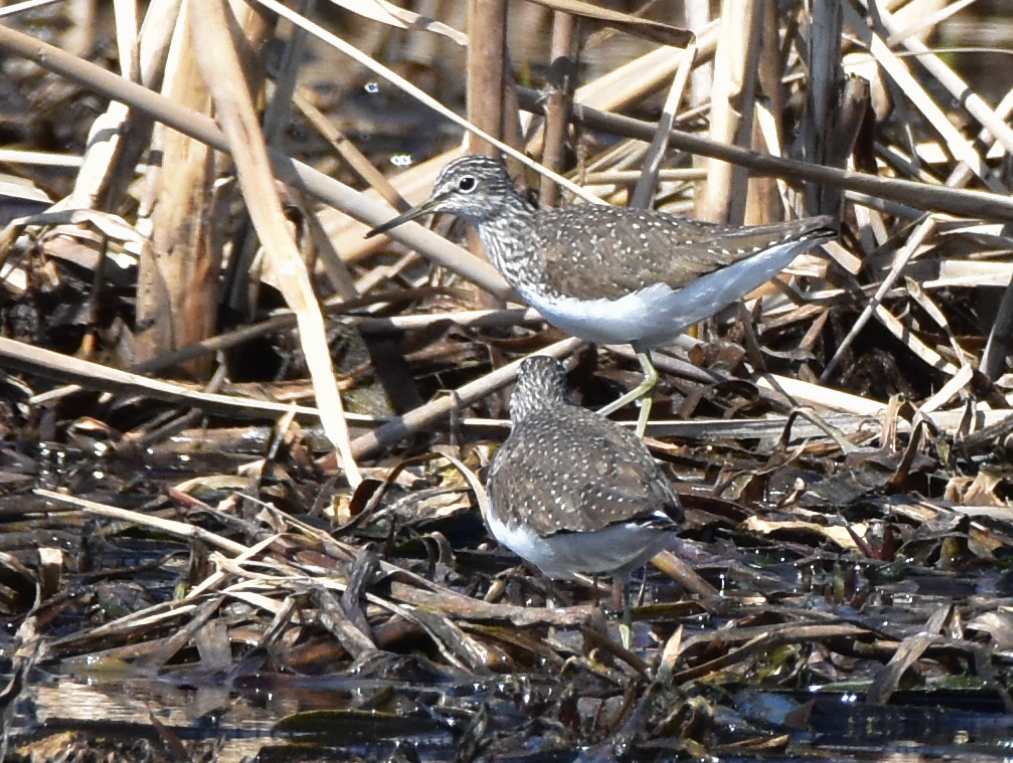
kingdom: Animalia
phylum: Chordata
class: Aves
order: Charadriiformes
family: Scolopacidae
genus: Tringa
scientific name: Tringa ochropus
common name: Green sandpiper
